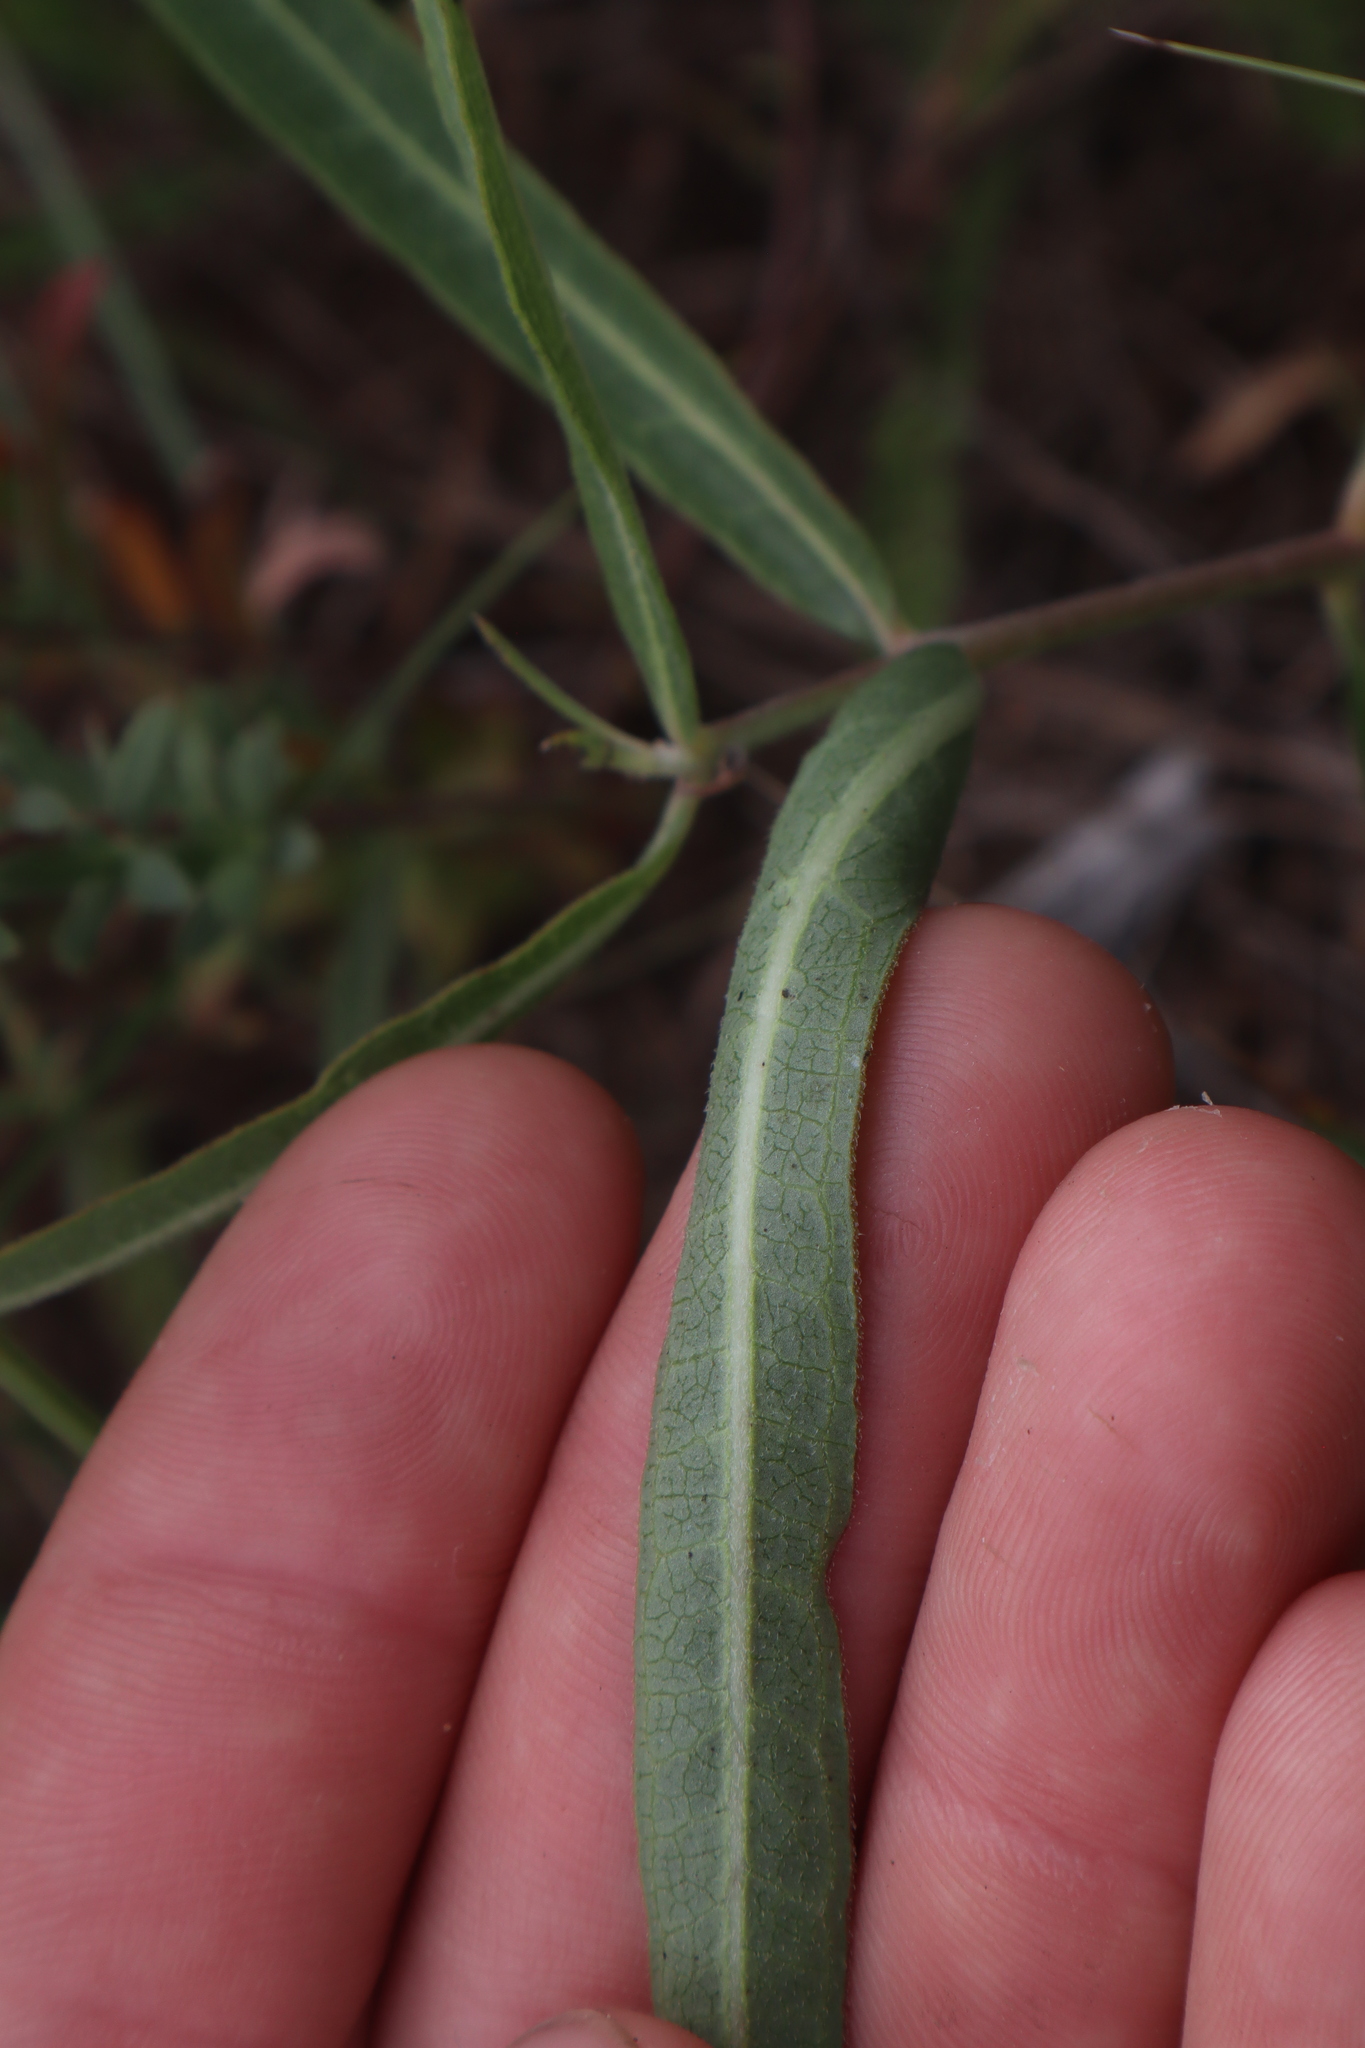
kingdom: Plantae
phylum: Tracheophyta
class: Magnoliopsida
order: Gentianales
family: Apocynaceae
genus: Asclepias
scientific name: Asclepias viridiflora
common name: Green comet milkweed
